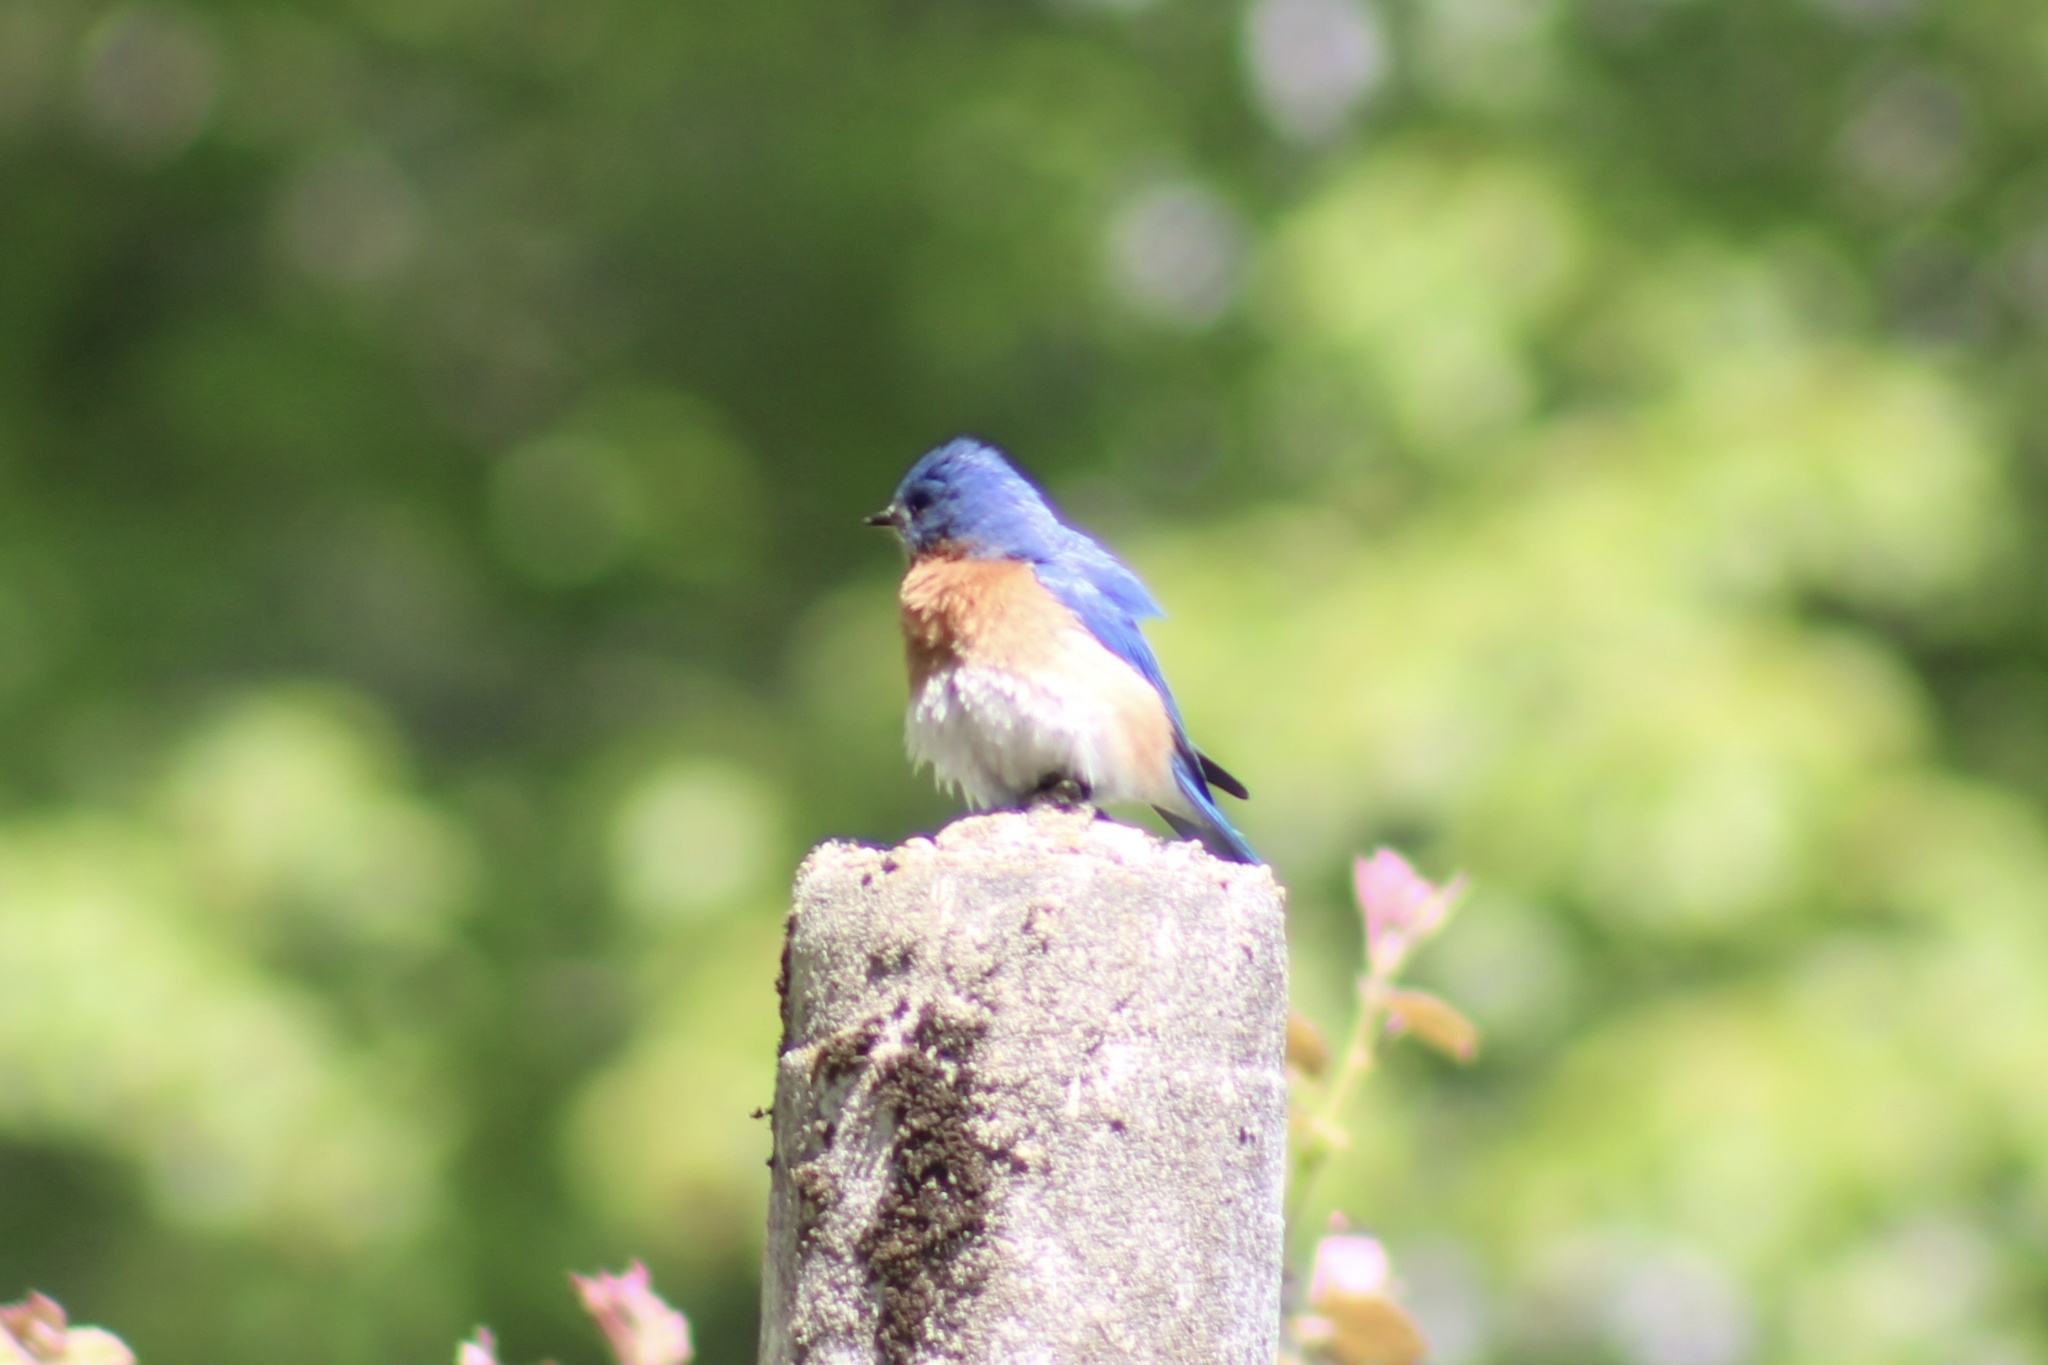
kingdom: Animalia
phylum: Chordata
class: Aves
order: Passeriformes
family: Turdidae
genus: Sialia
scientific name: Sialia sialis
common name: Eastern bluebird
